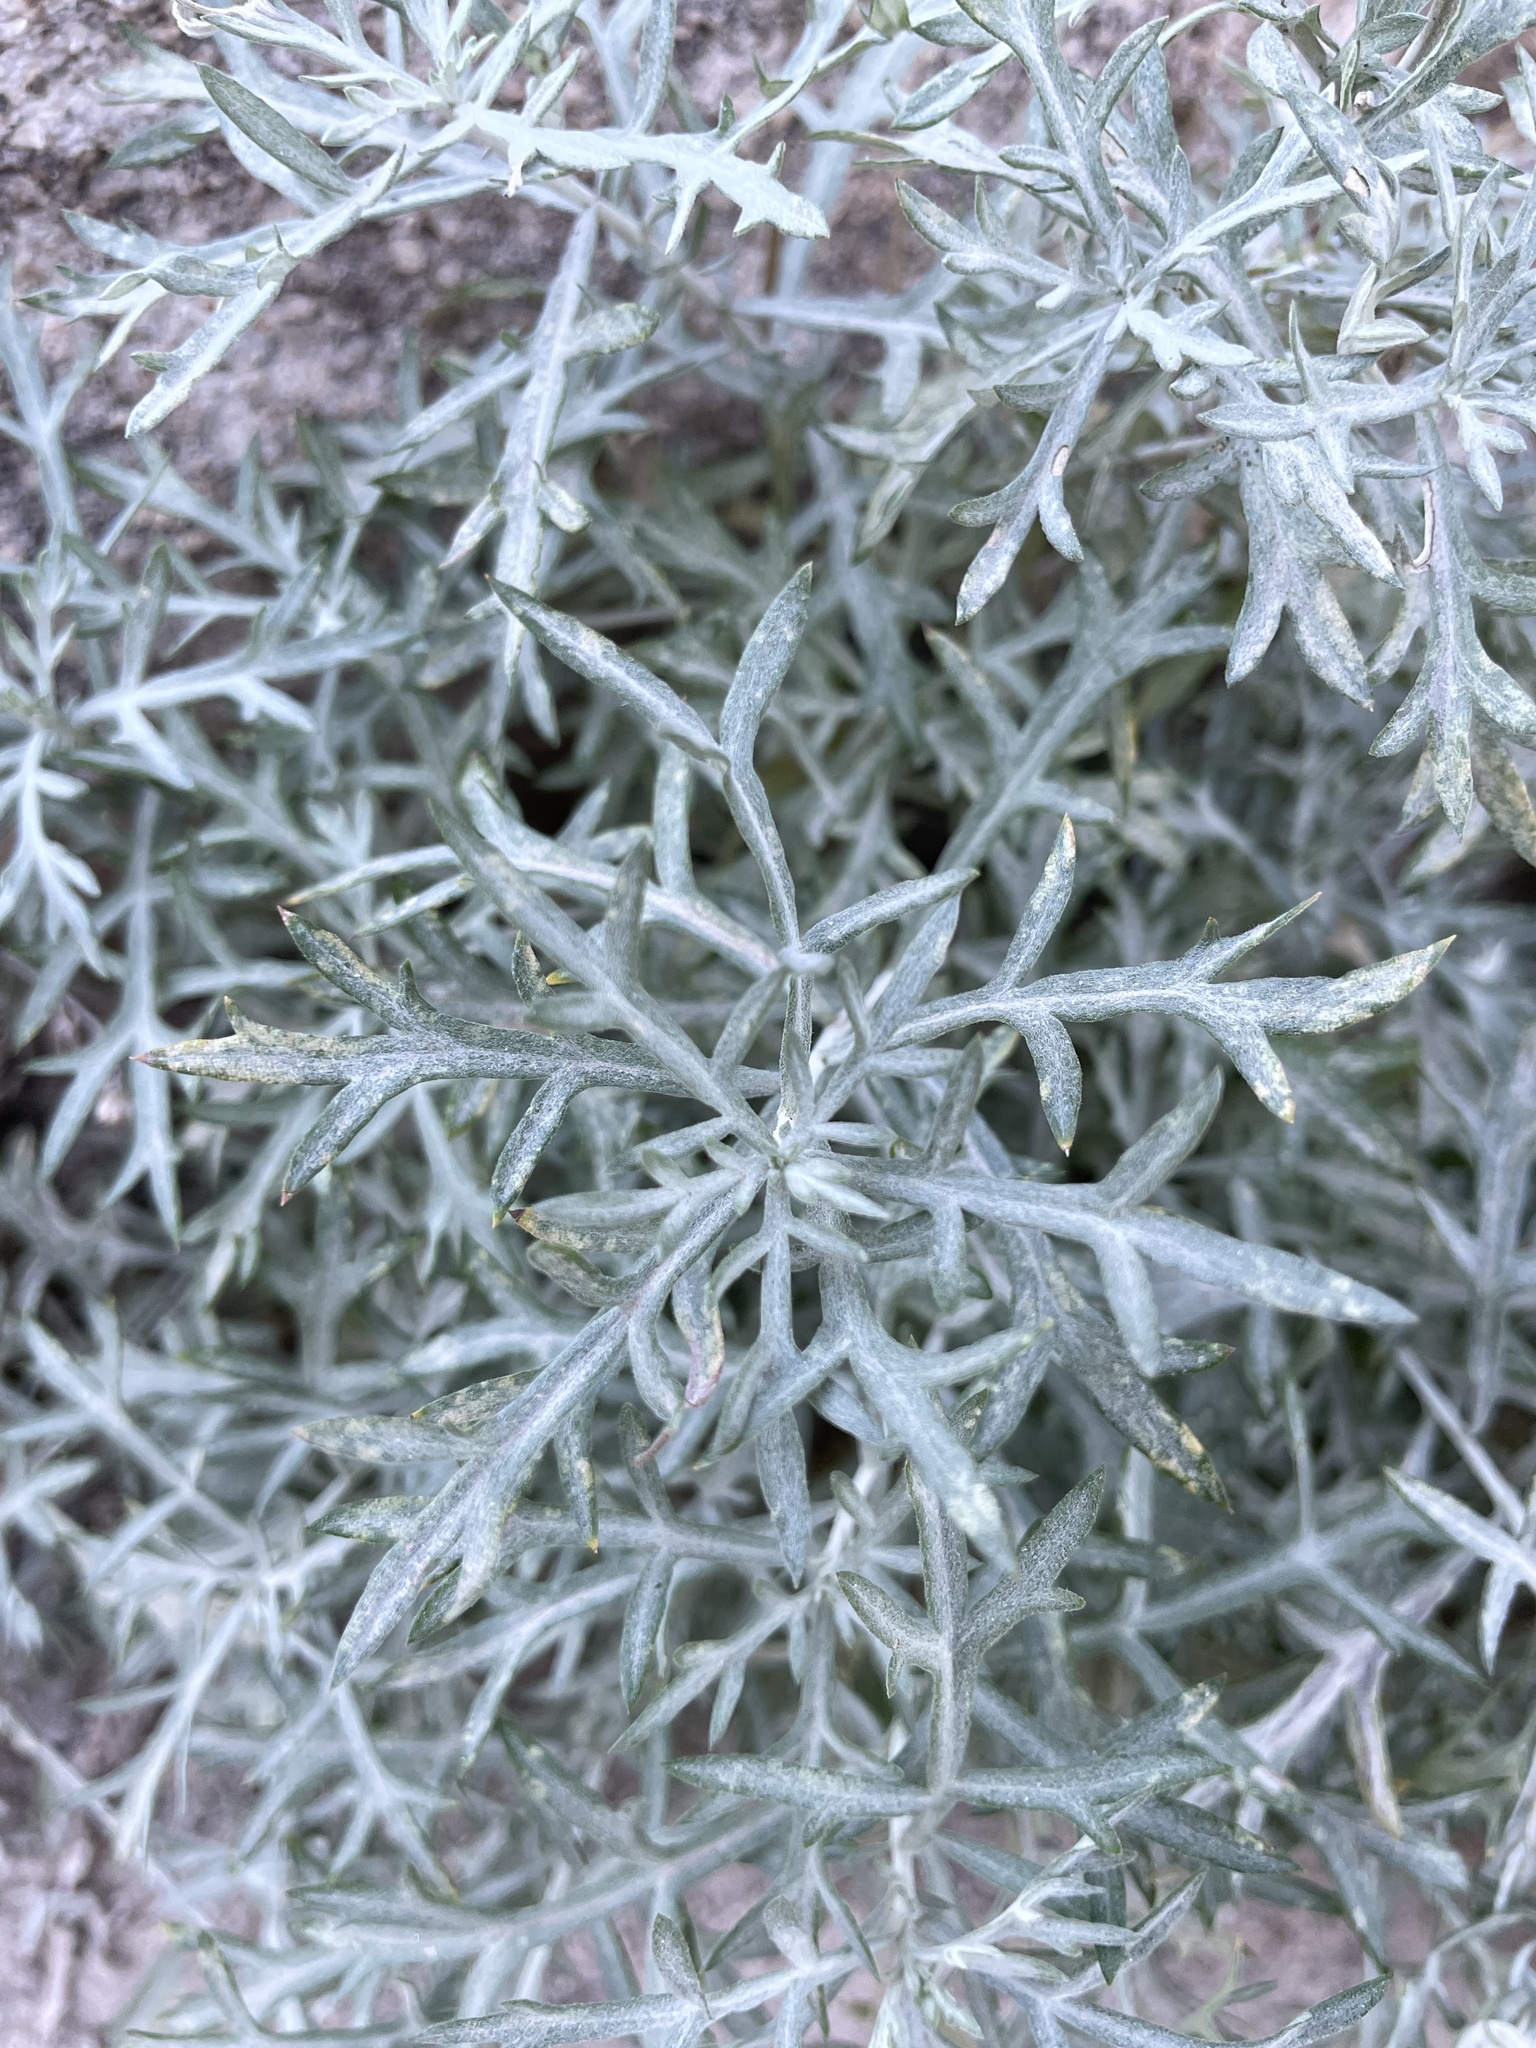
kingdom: Plantae
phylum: Tracheophyta
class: Magnoliopsida
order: Asterales
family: Asteraceae
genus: Artemisia
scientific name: Artemisia ludoviciana
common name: Western mugwort
